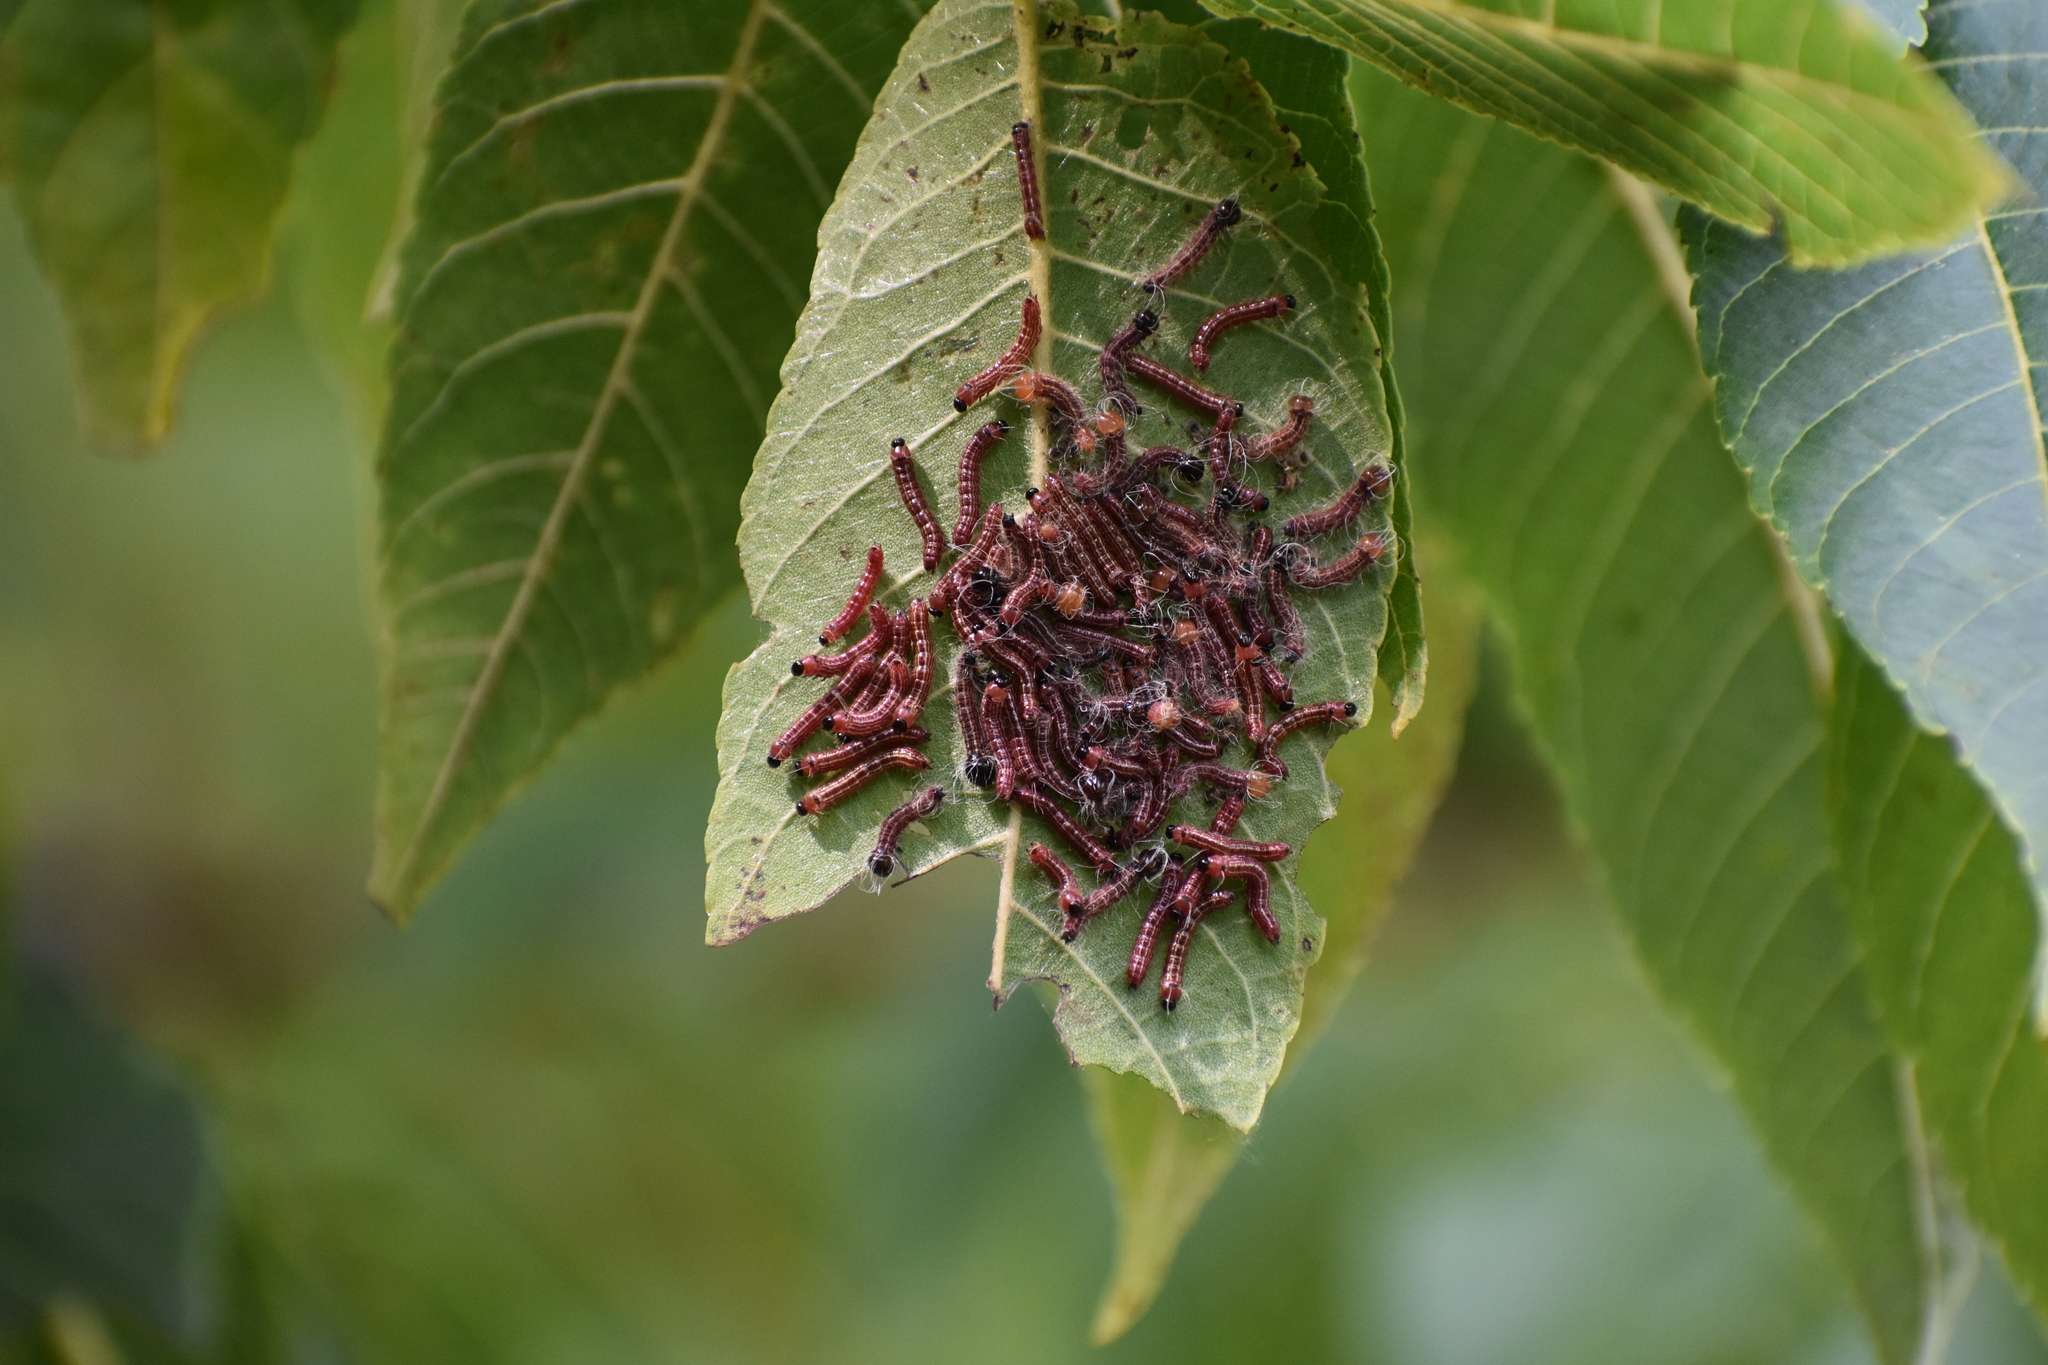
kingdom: Animalia
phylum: Arthropoda
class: Insecta
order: Lepidoptera
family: Notodontidae
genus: Datana
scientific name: Datana integerrima
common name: Walnut caterpillar
